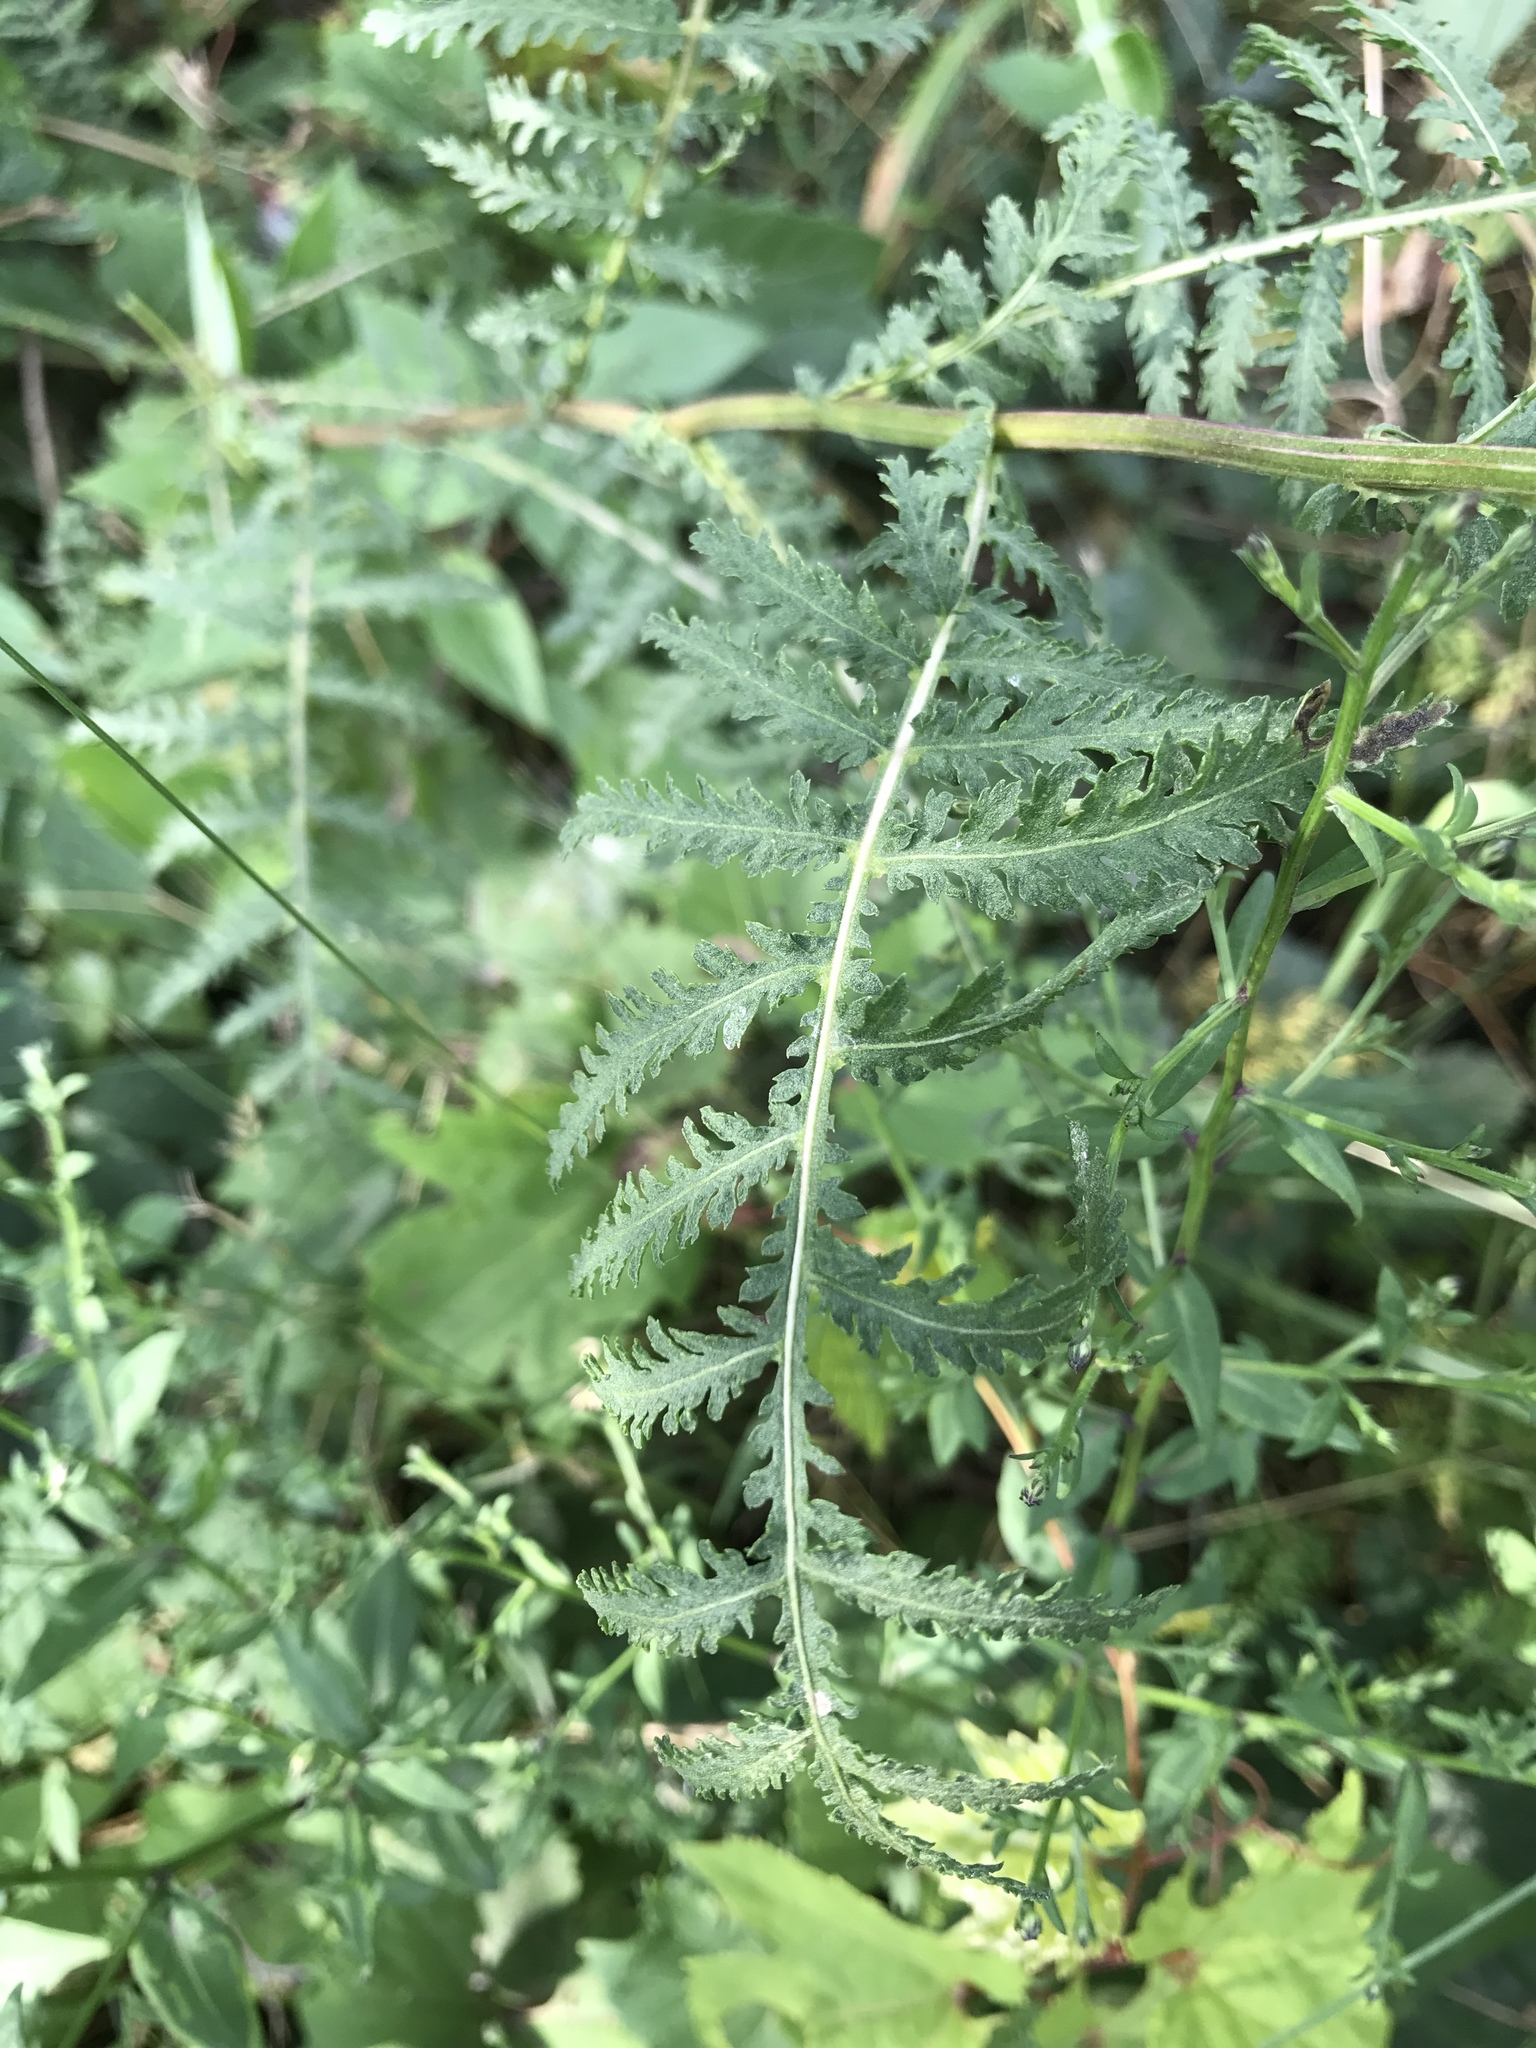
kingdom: Plantae
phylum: Tracheophyta
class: Magnoliopsida
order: Asterales
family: Asteraceae
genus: Tanacetum
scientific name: Tanacetum vulgare
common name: Common tansy
